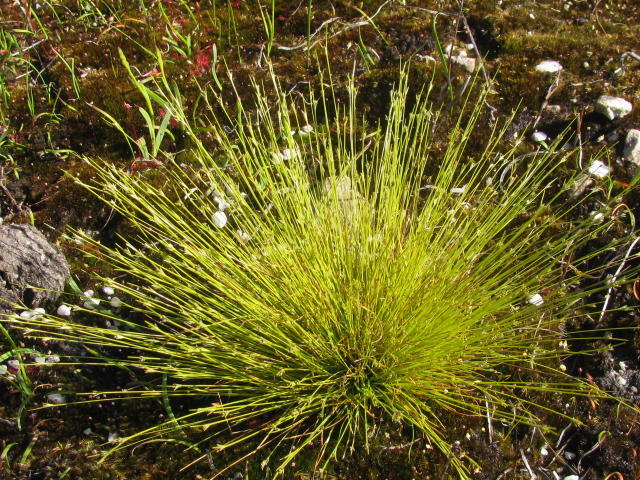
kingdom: Plantae
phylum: Tracheophyta
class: Liliopsida
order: Poales
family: Cyperaceae
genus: Ficinia
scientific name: Ficinia micrantha
